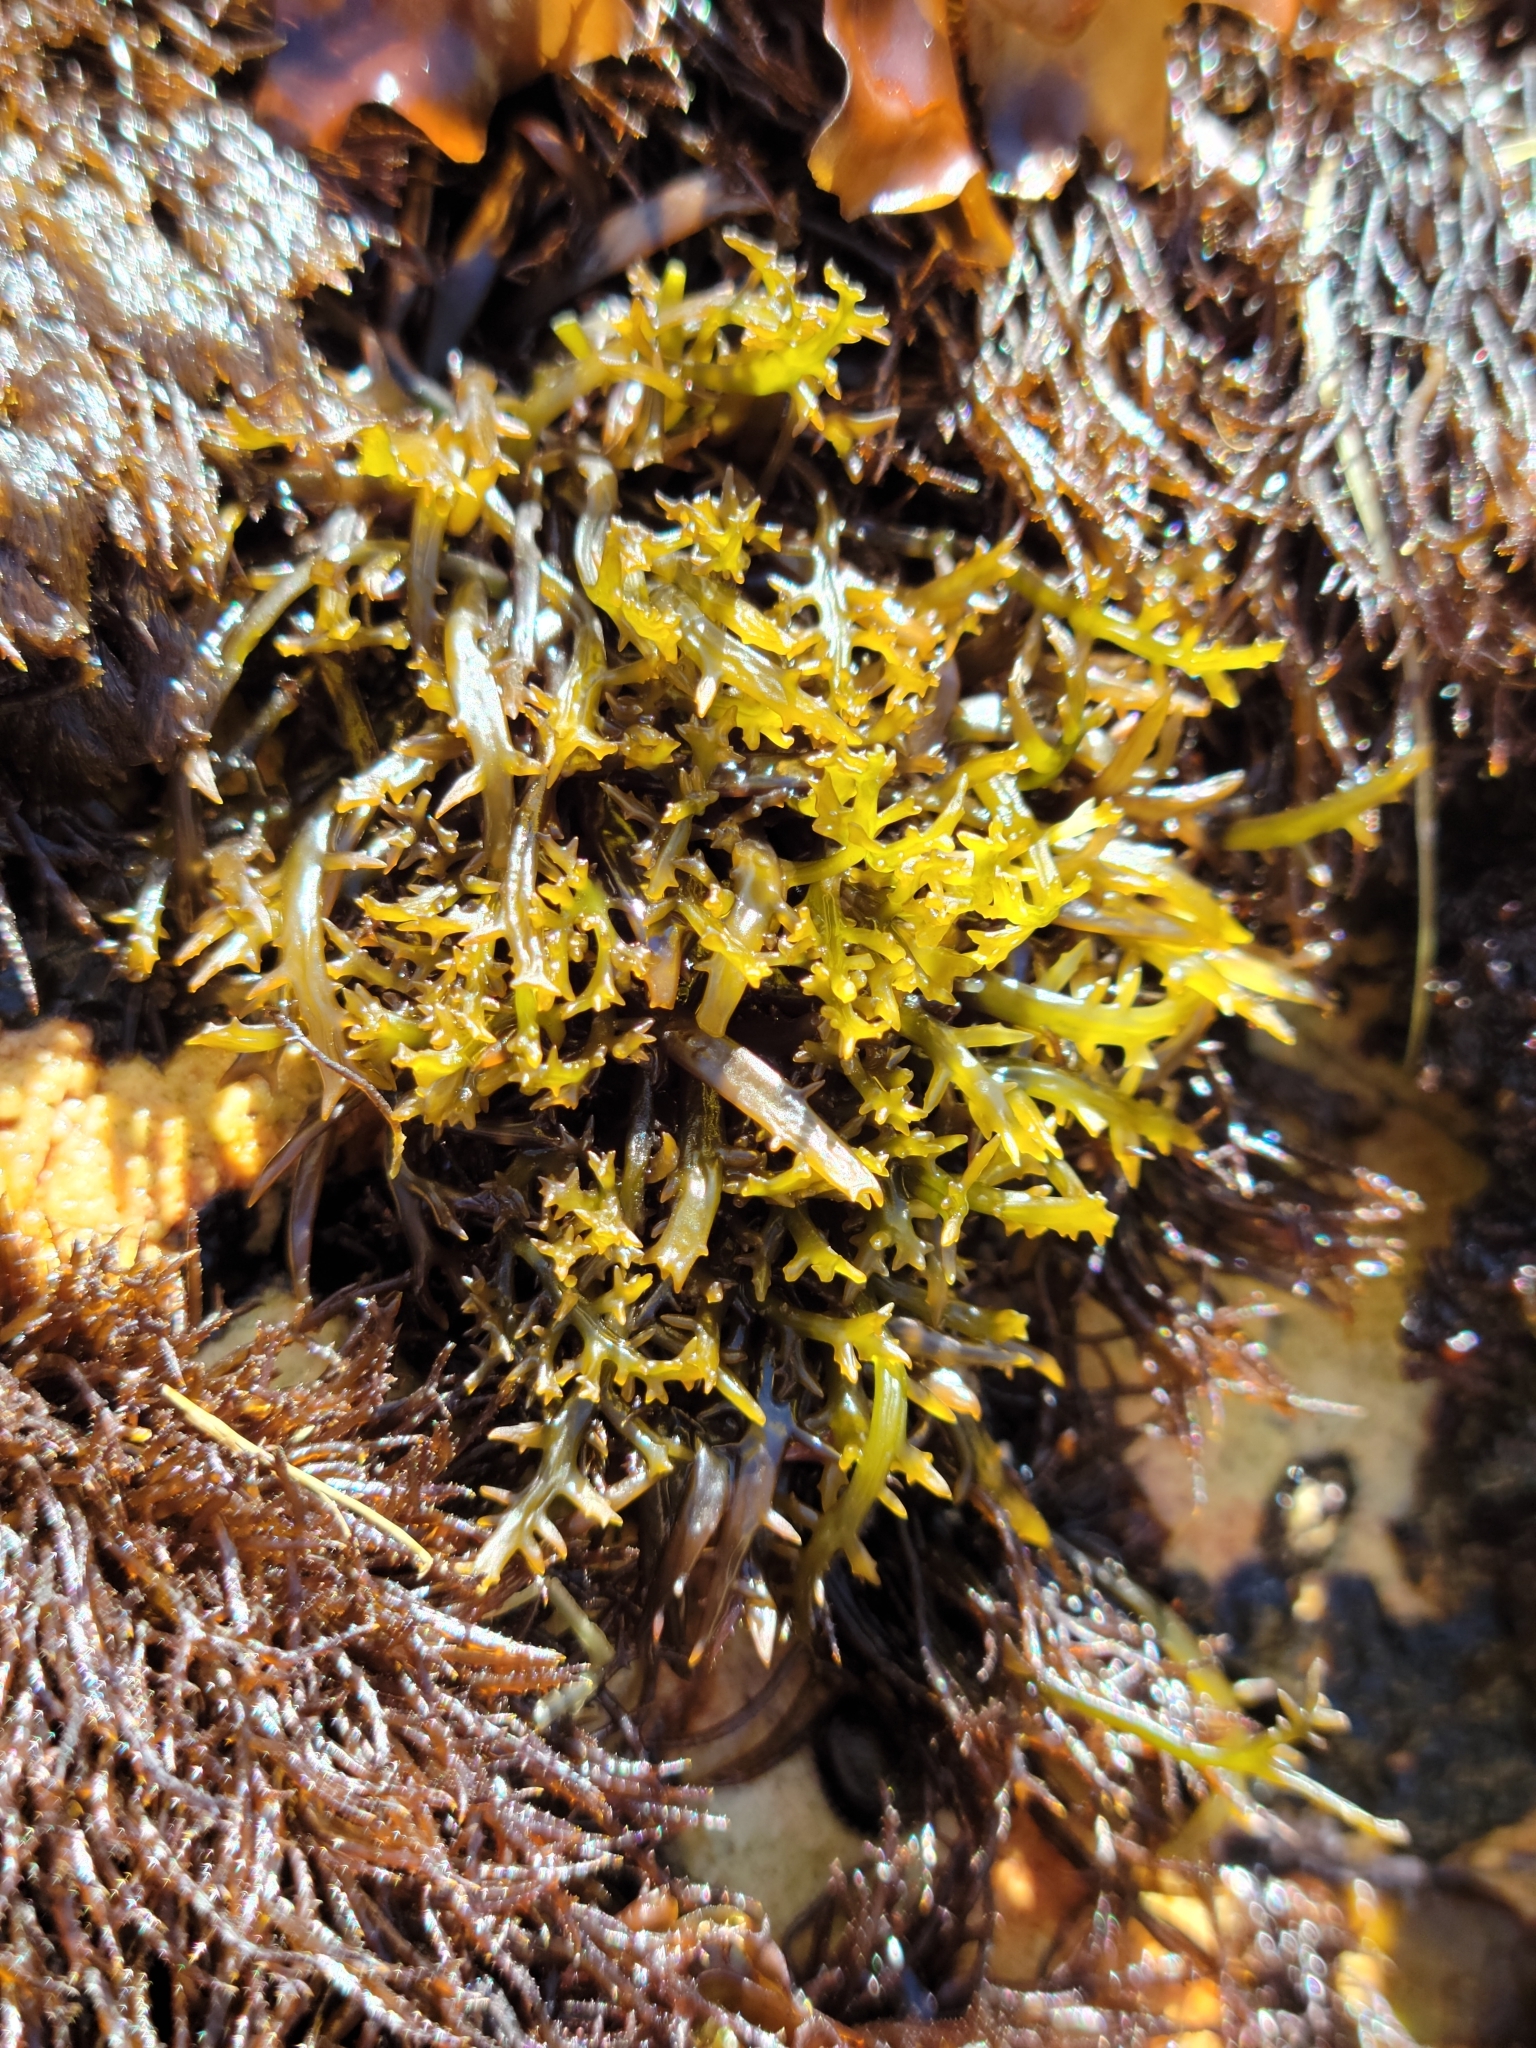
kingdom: Plantae
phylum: Rhodophyta
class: Florideophyceae
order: Gigartinales
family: Gigartinaceae
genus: Chondracanthus
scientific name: Chondracanthus canaliculatus
